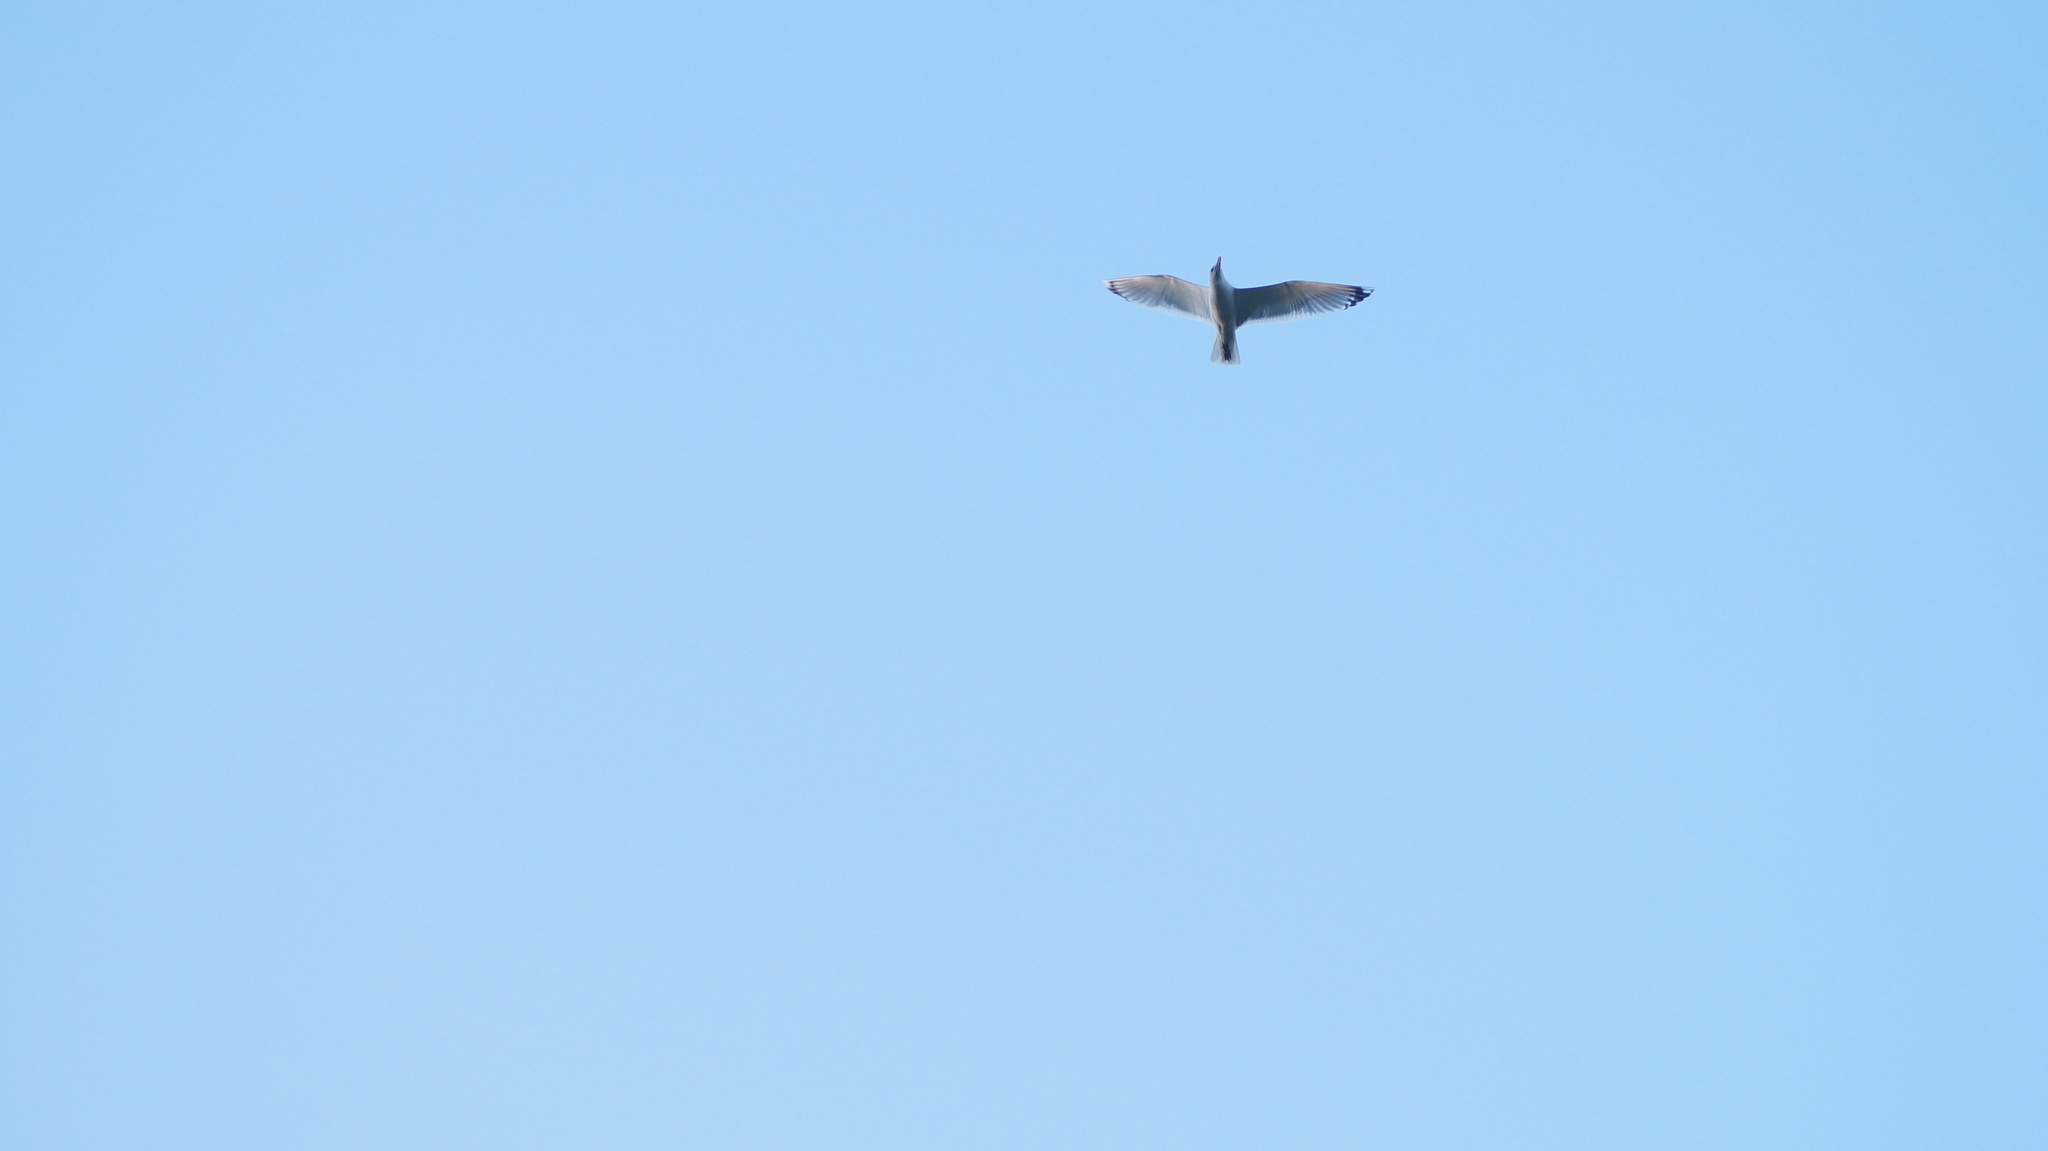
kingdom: Animalia
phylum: Chordata
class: Aves
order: Charadriiformes
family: Laridae
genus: Larus
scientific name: Larus
